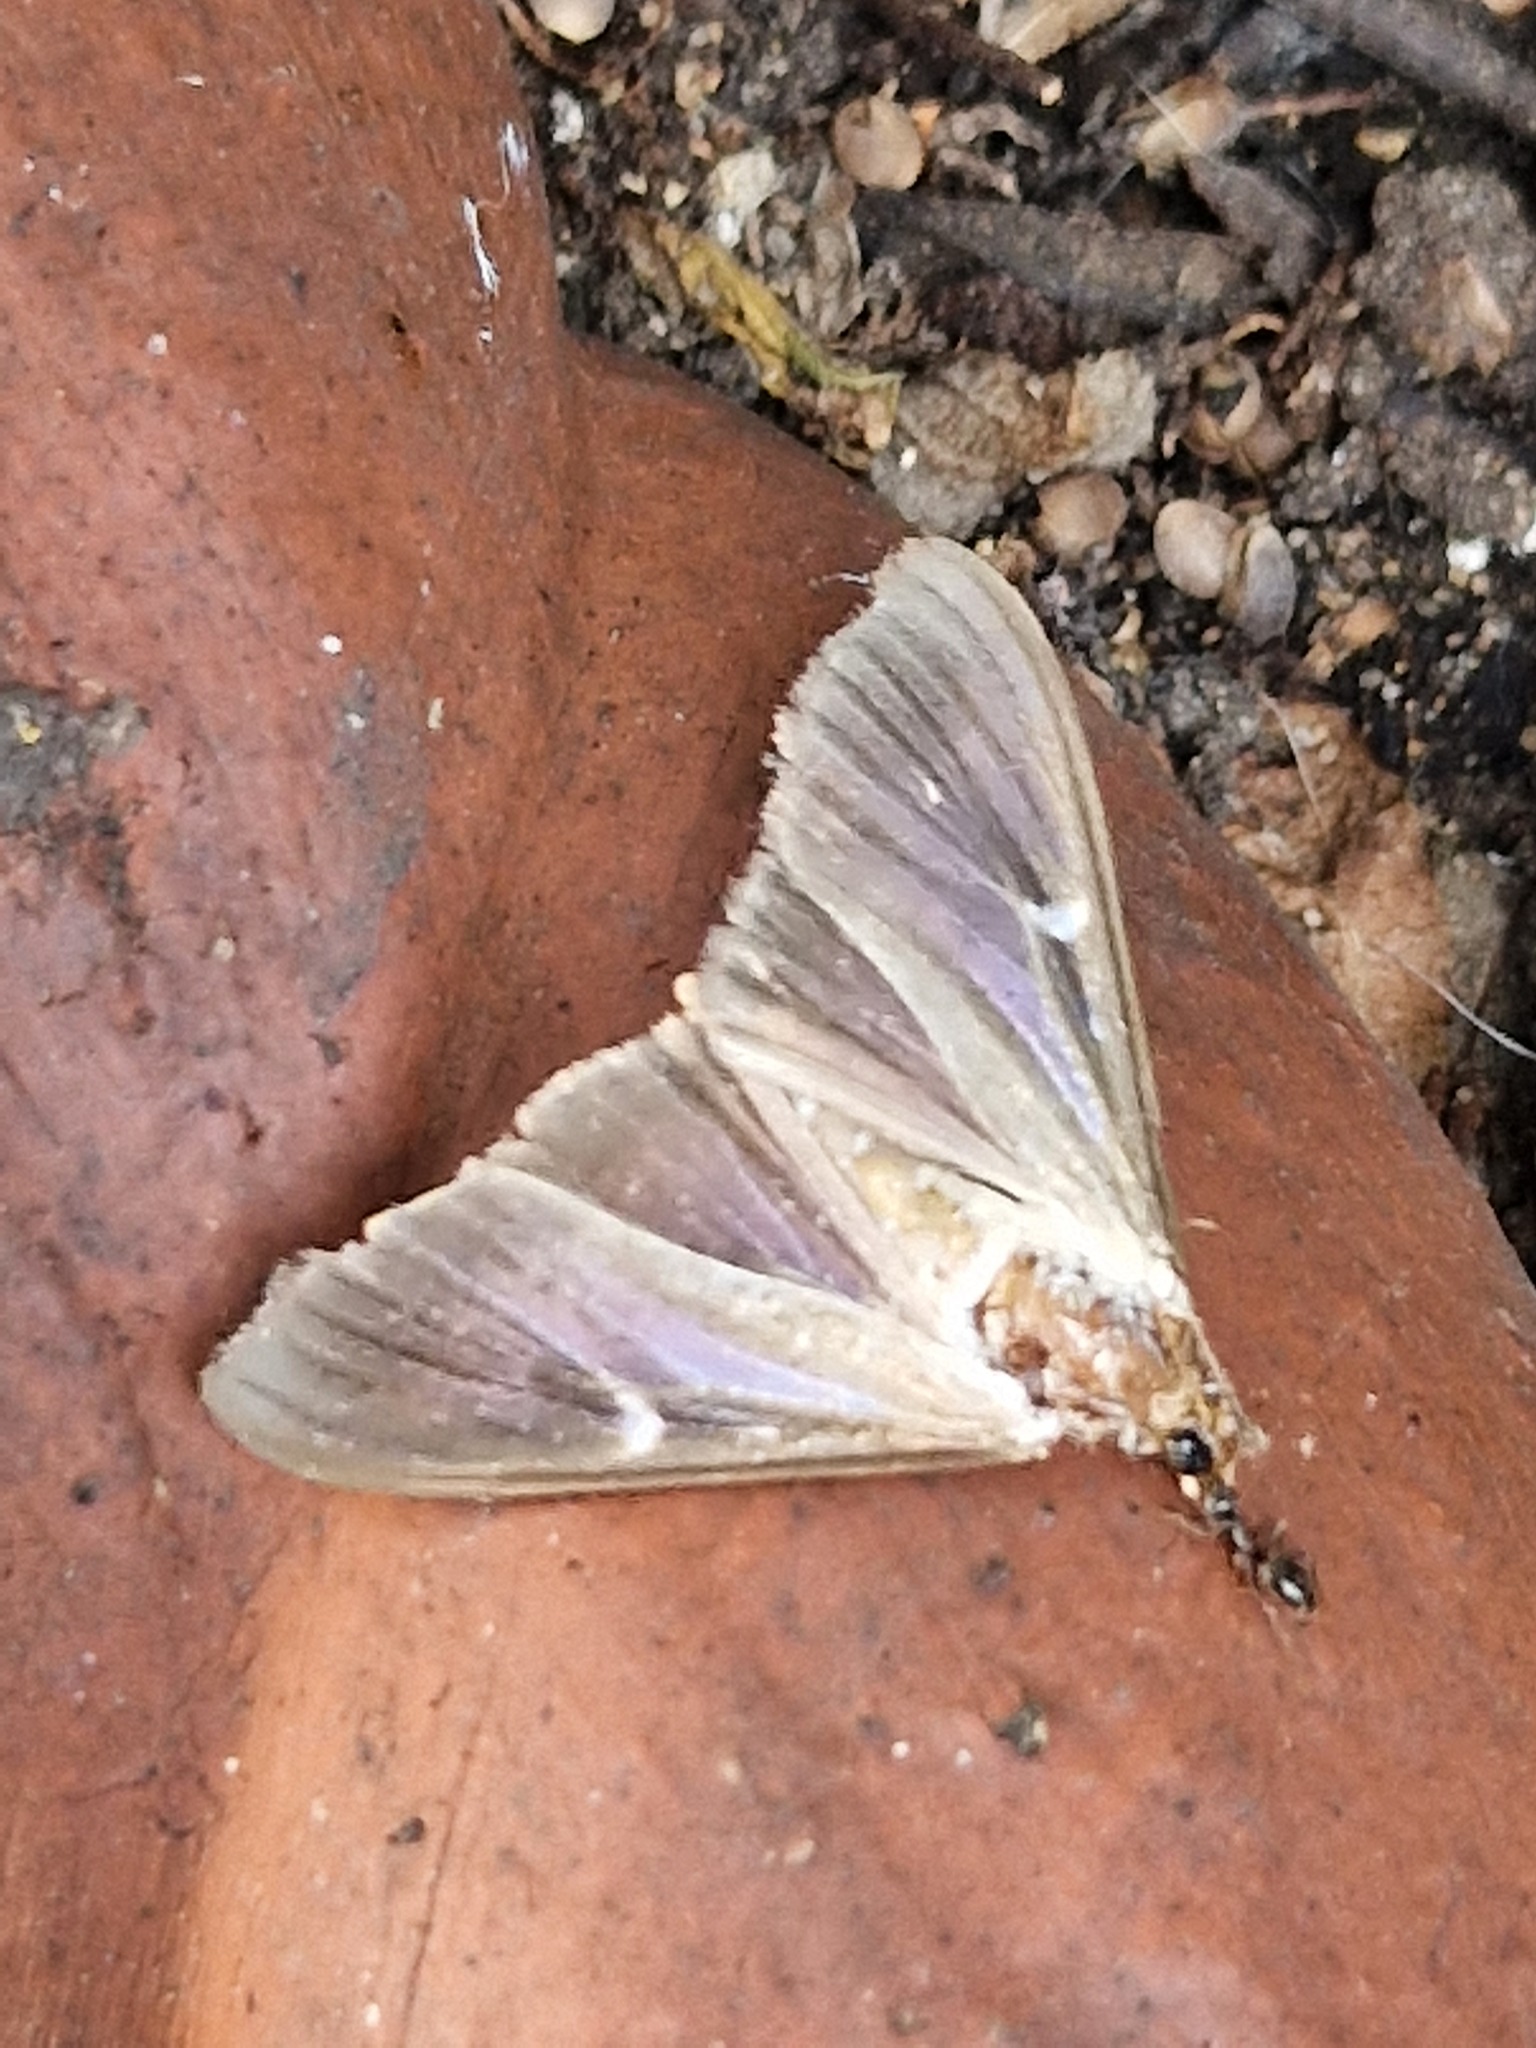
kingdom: Animalia
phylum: Arthropoda
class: Insecta
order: Lepidoptera
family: Crambidae
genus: Cydalima
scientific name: Cydalima perspectalis
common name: Box tree moth
